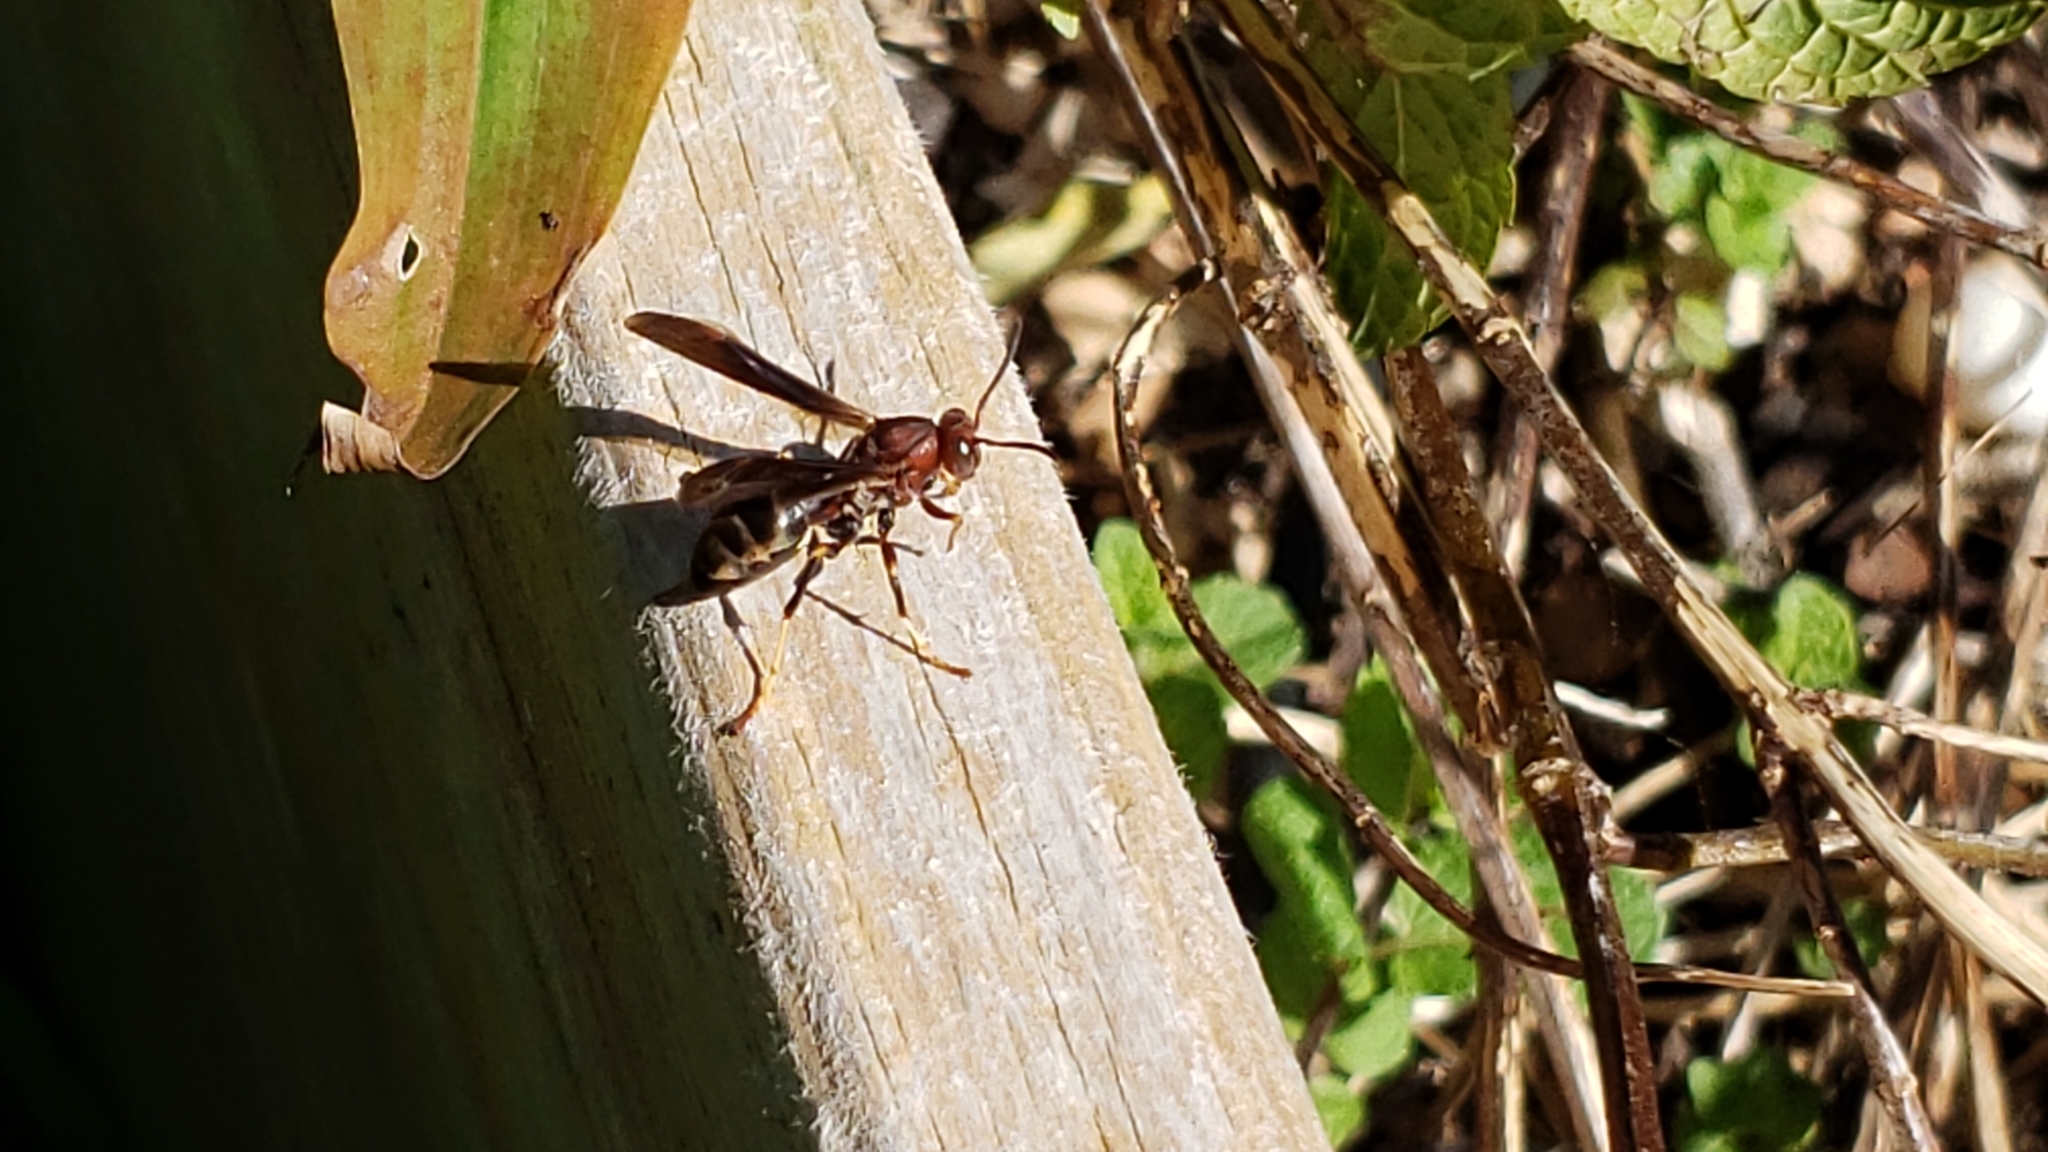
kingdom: Animalia
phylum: Arthropoda
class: Insecta
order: Hymenoptera
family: Eumenidae
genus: Polistes
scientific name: Polistes metricus
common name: Metric paper wasp
